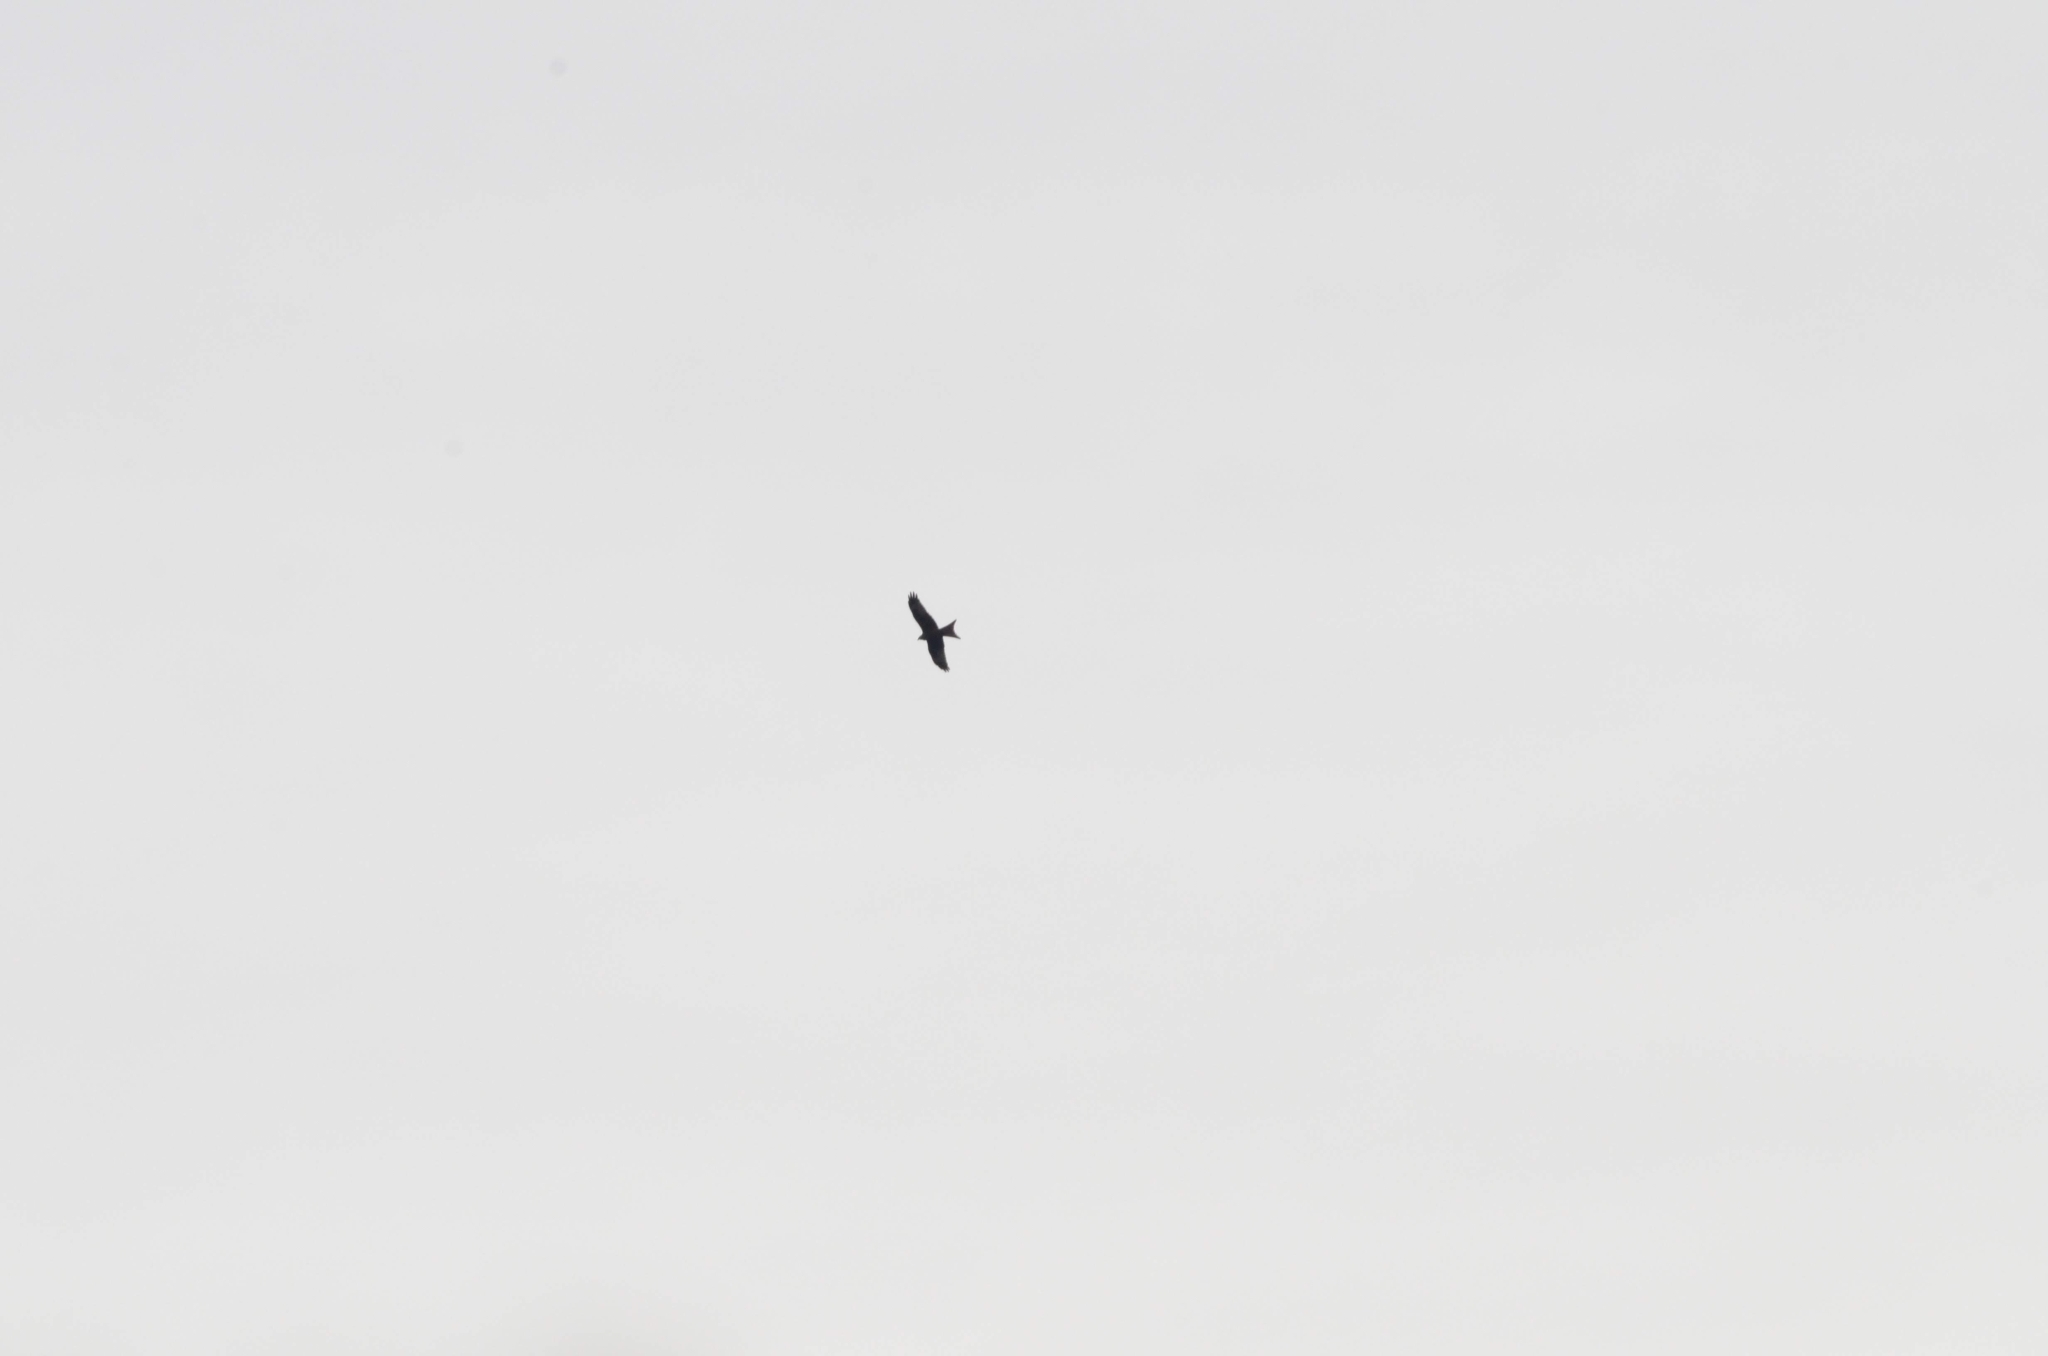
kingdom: Animalia
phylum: Chordata
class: Aves
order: Accipitriformes
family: Accipitridae
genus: Milvus
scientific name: Milvus milvus
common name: Red kite
